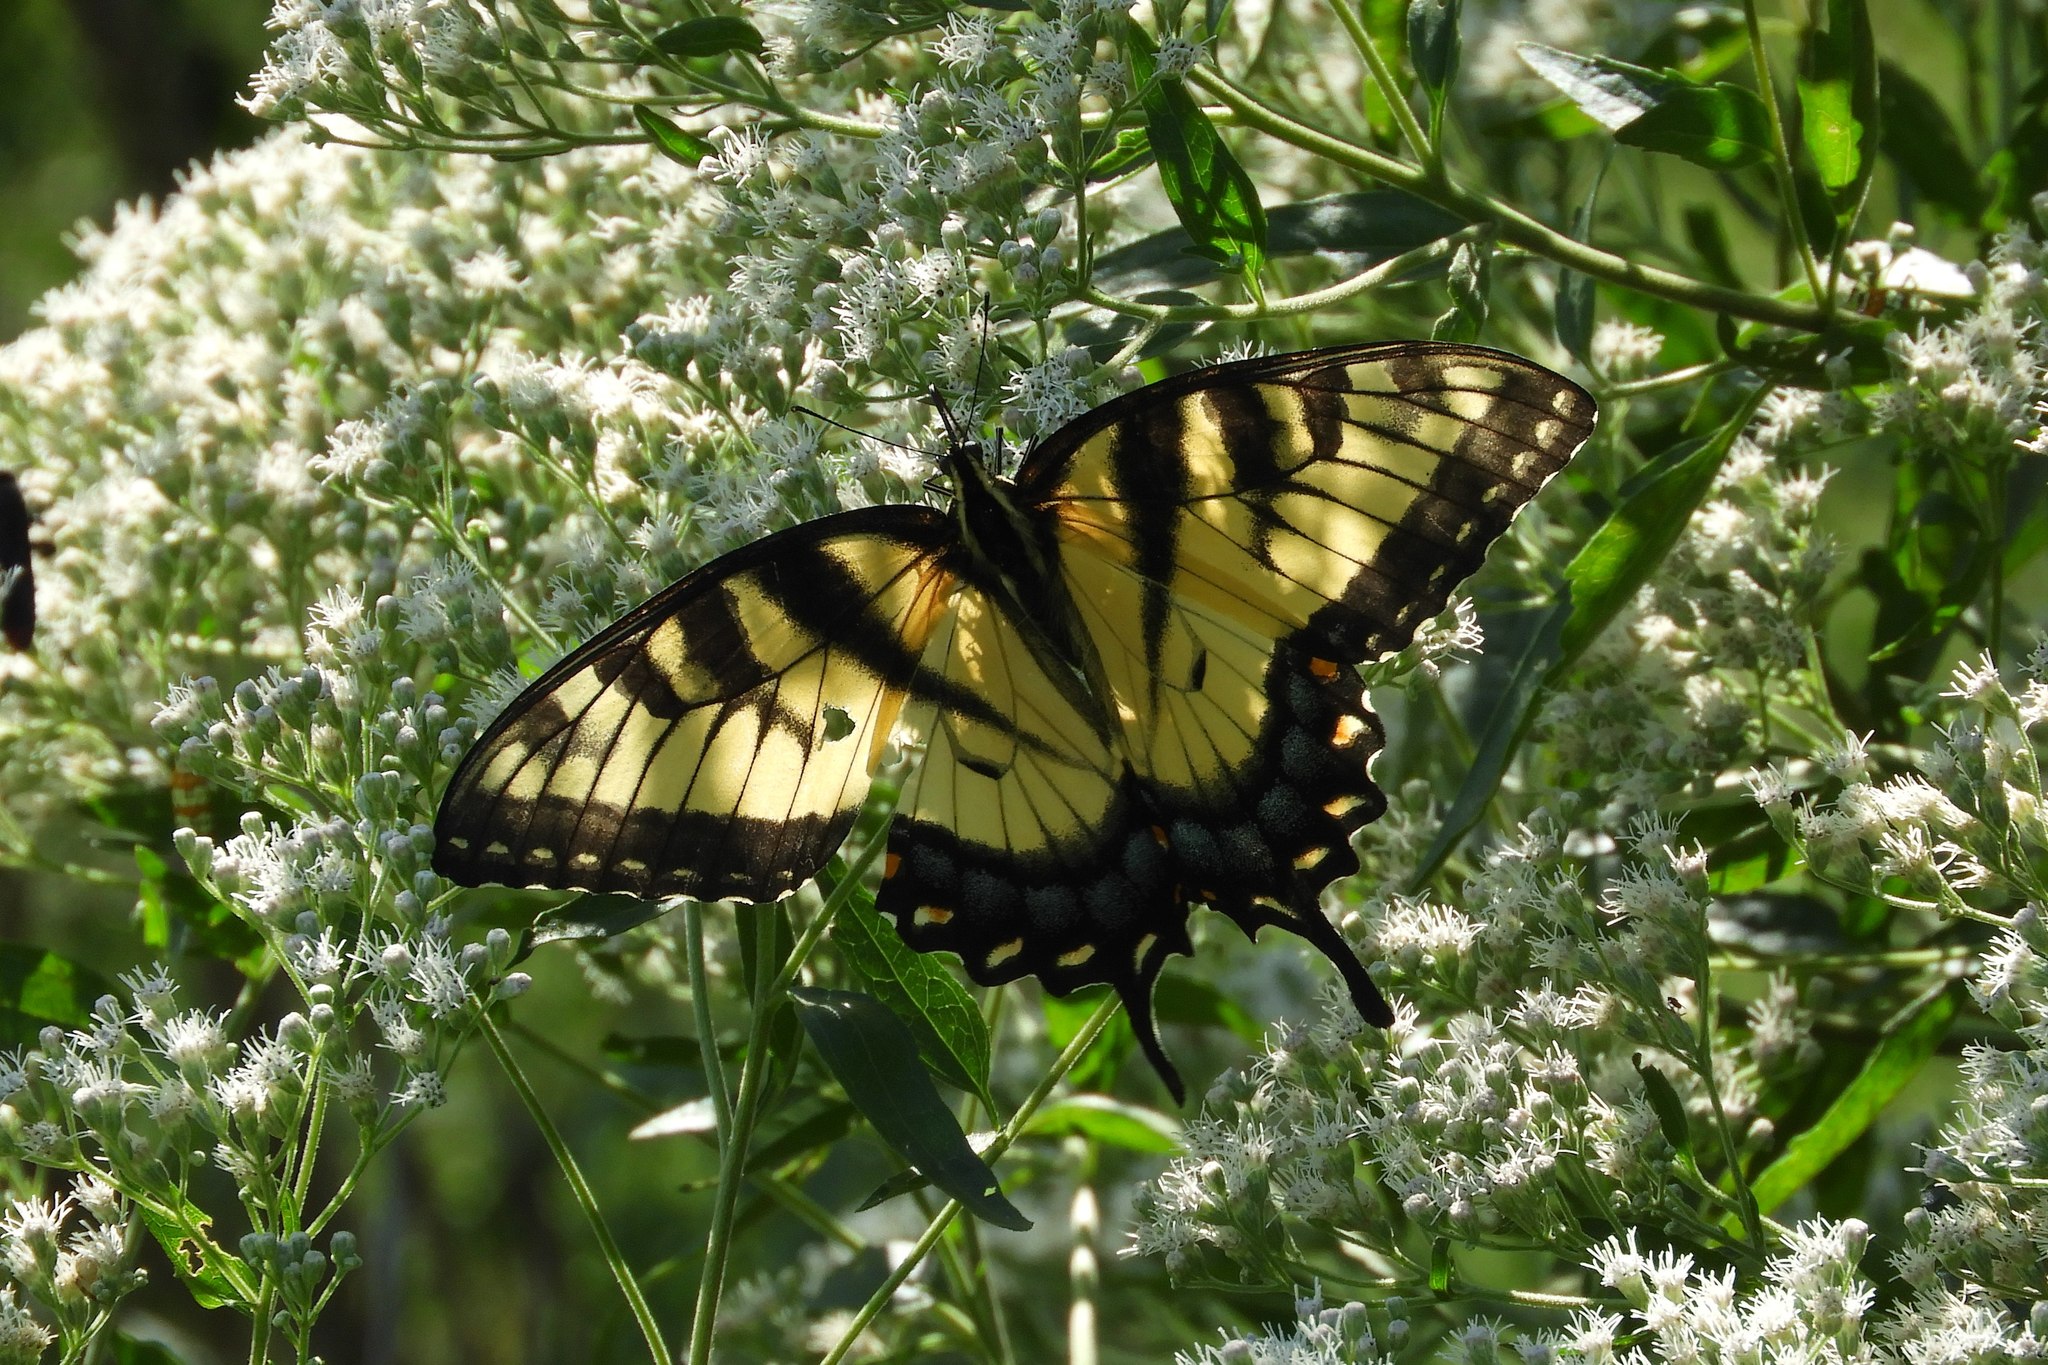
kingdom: Animalia
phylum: Arthropoda
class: Insecta
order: Lepidoptera
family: Papilionidae
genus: Papilio
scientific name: Papilio glaucus
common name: Tiger swallowtail
